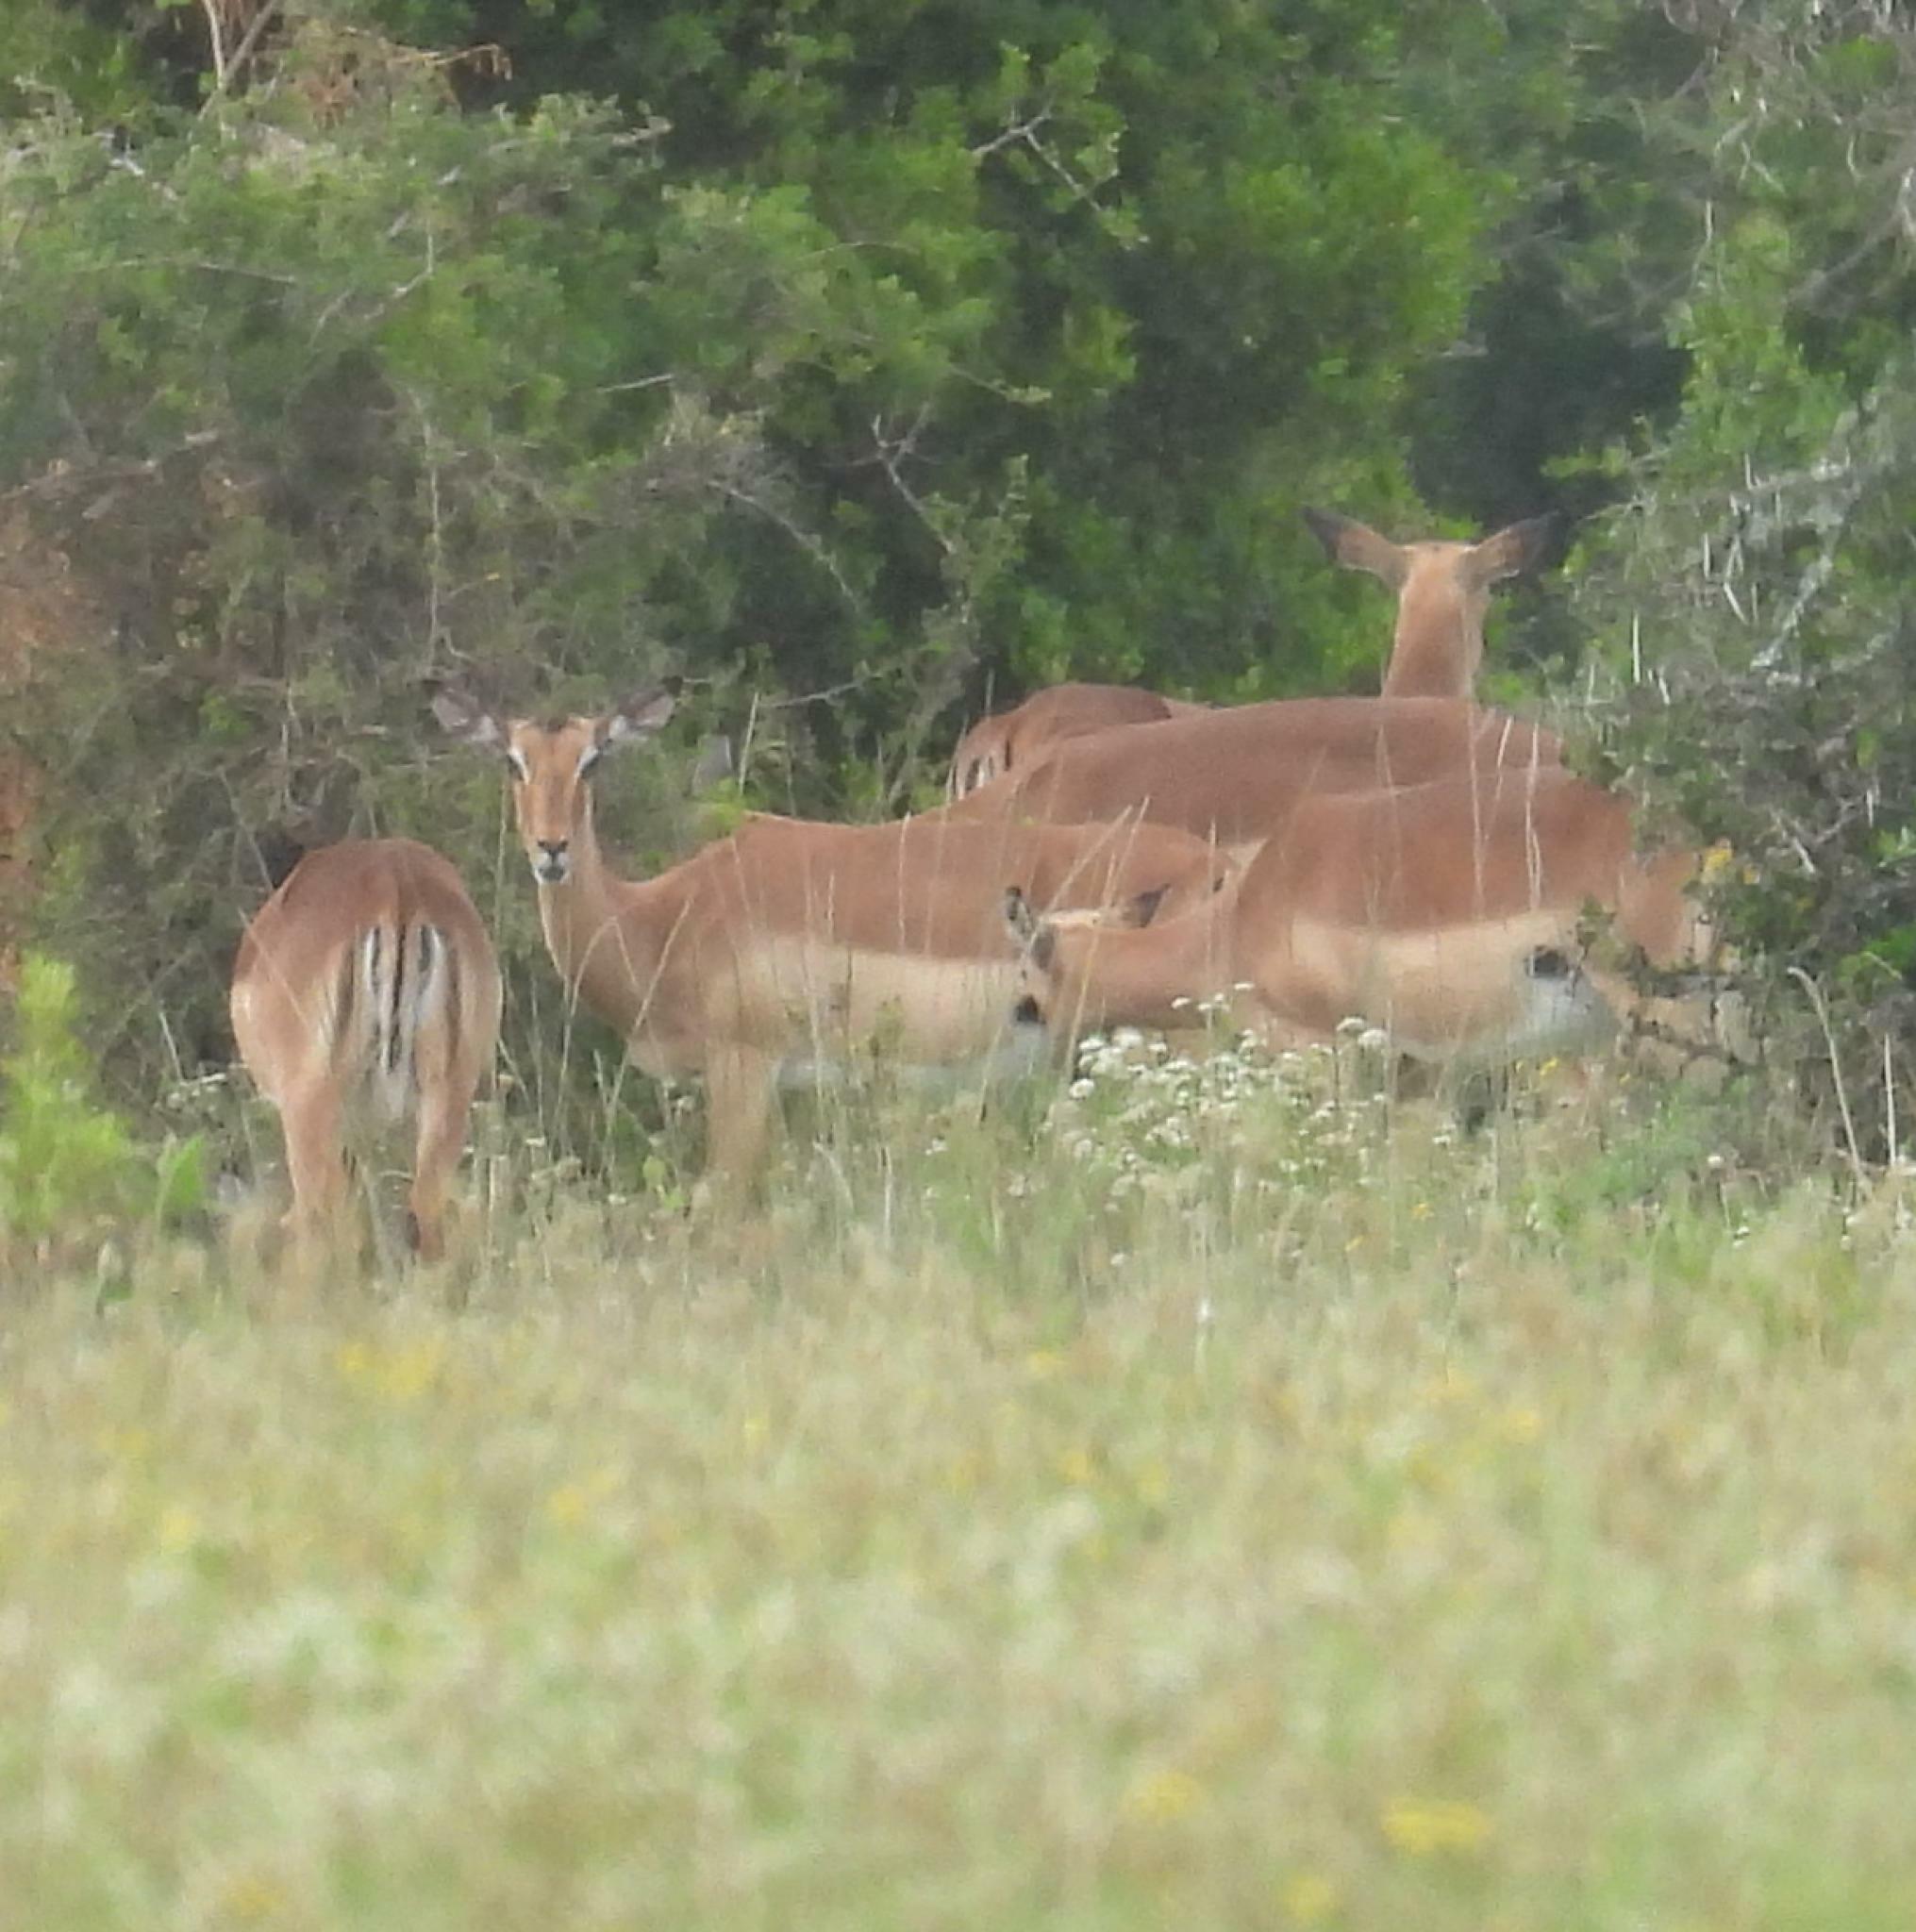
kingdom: Animalia
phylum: Chordata
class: Mammalia
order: Artiodactyla
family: Bovidae
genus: Aepyceros
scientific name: Aepyceros melampus
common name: Impala
